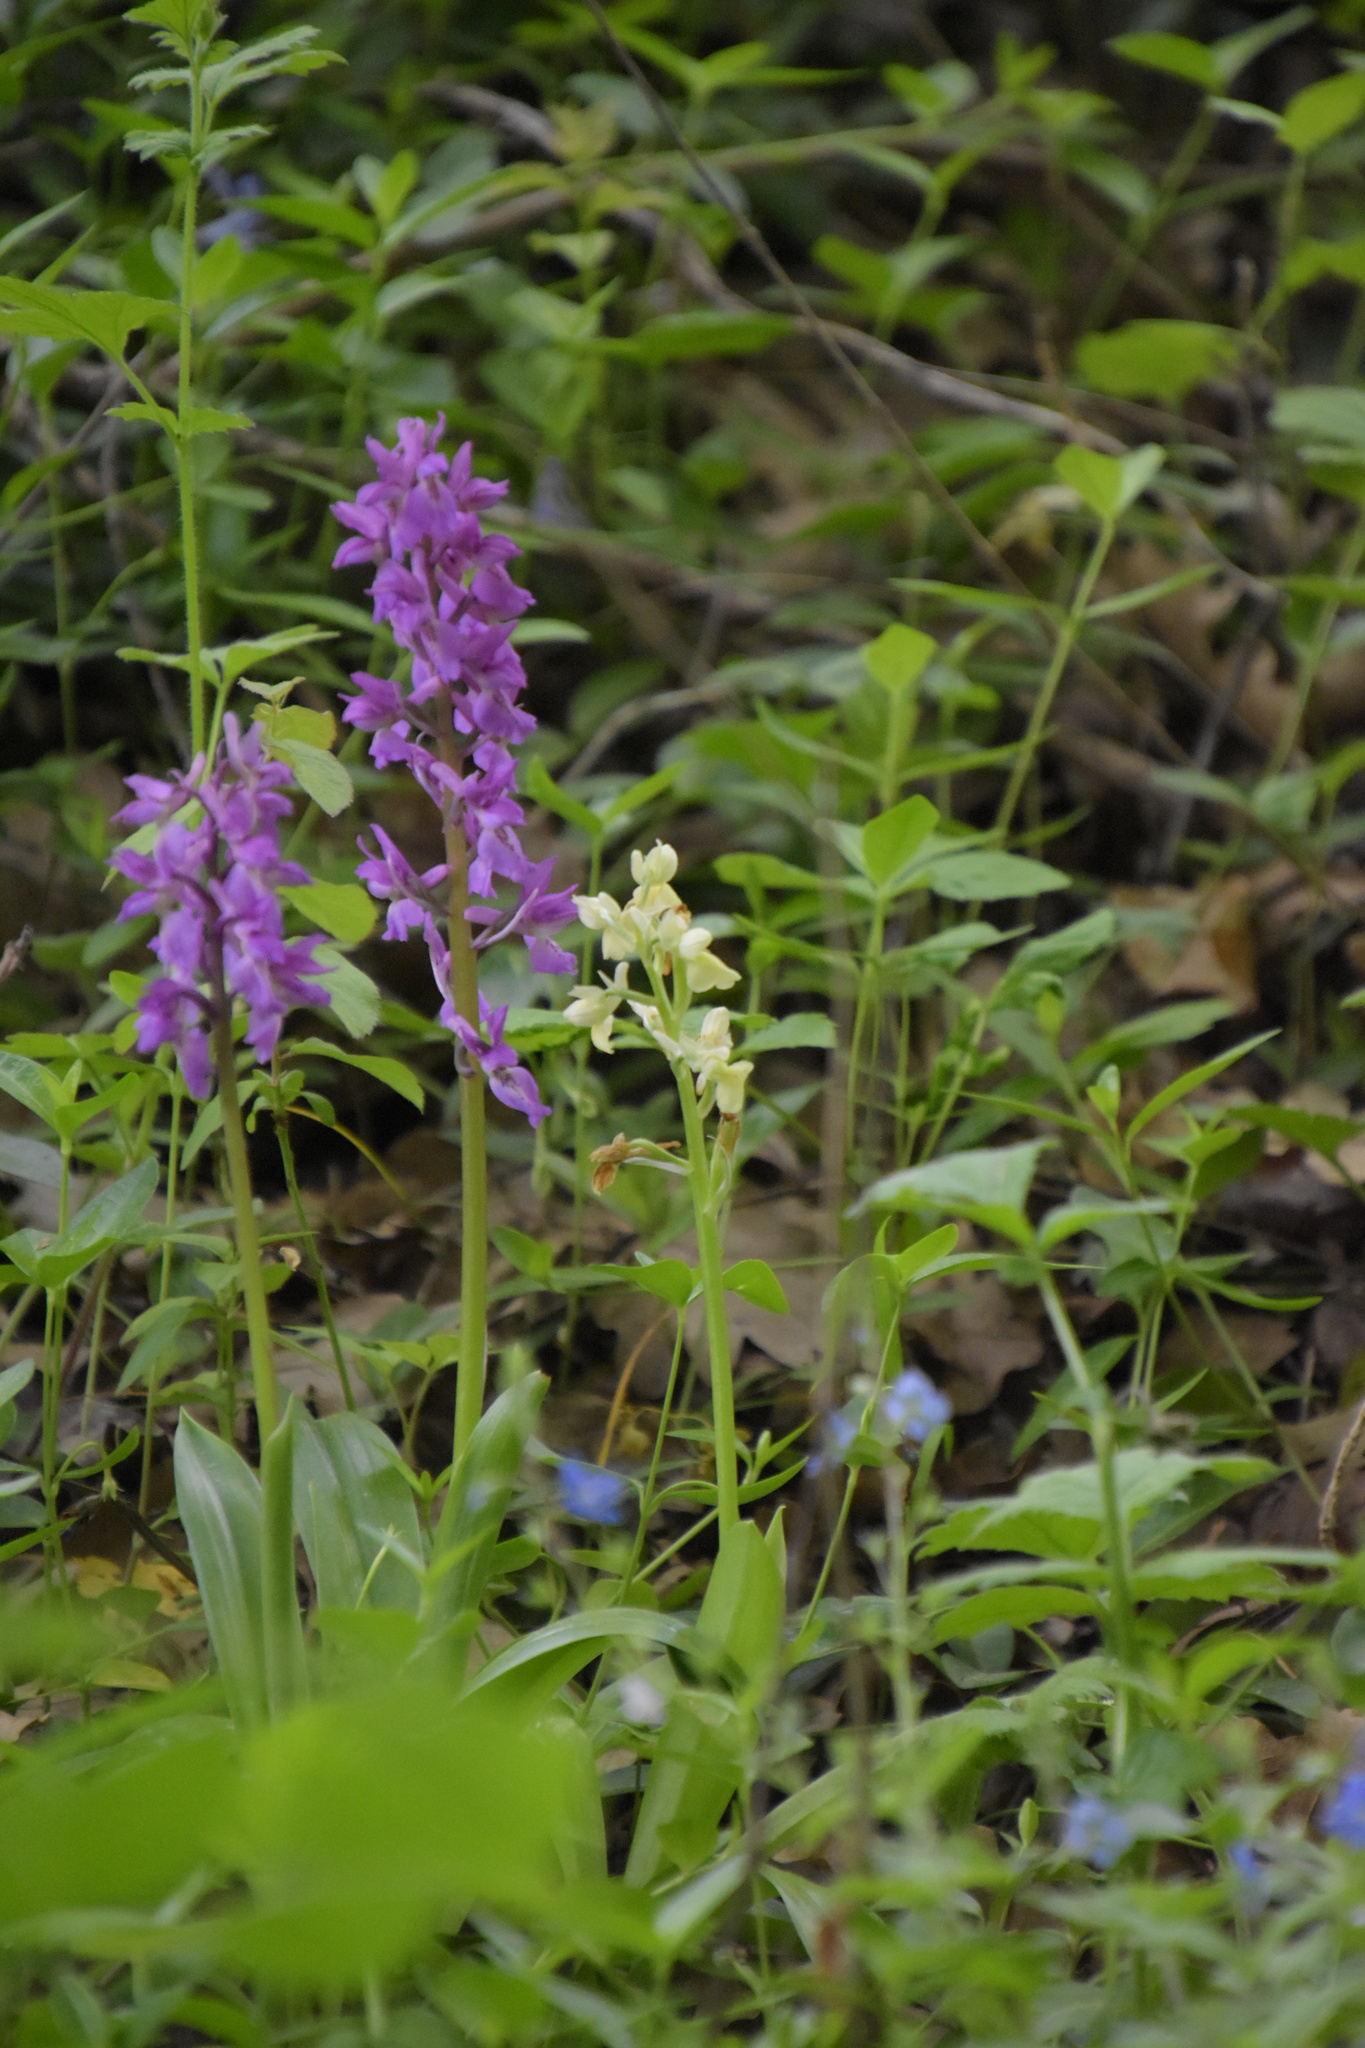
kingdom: Plantae
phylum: Tracheophyta
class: Liliopsida
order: Asparagales
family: Orchidaceae
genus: Orchis
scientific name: Orchis pallens
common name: Pale-flowered orchid
